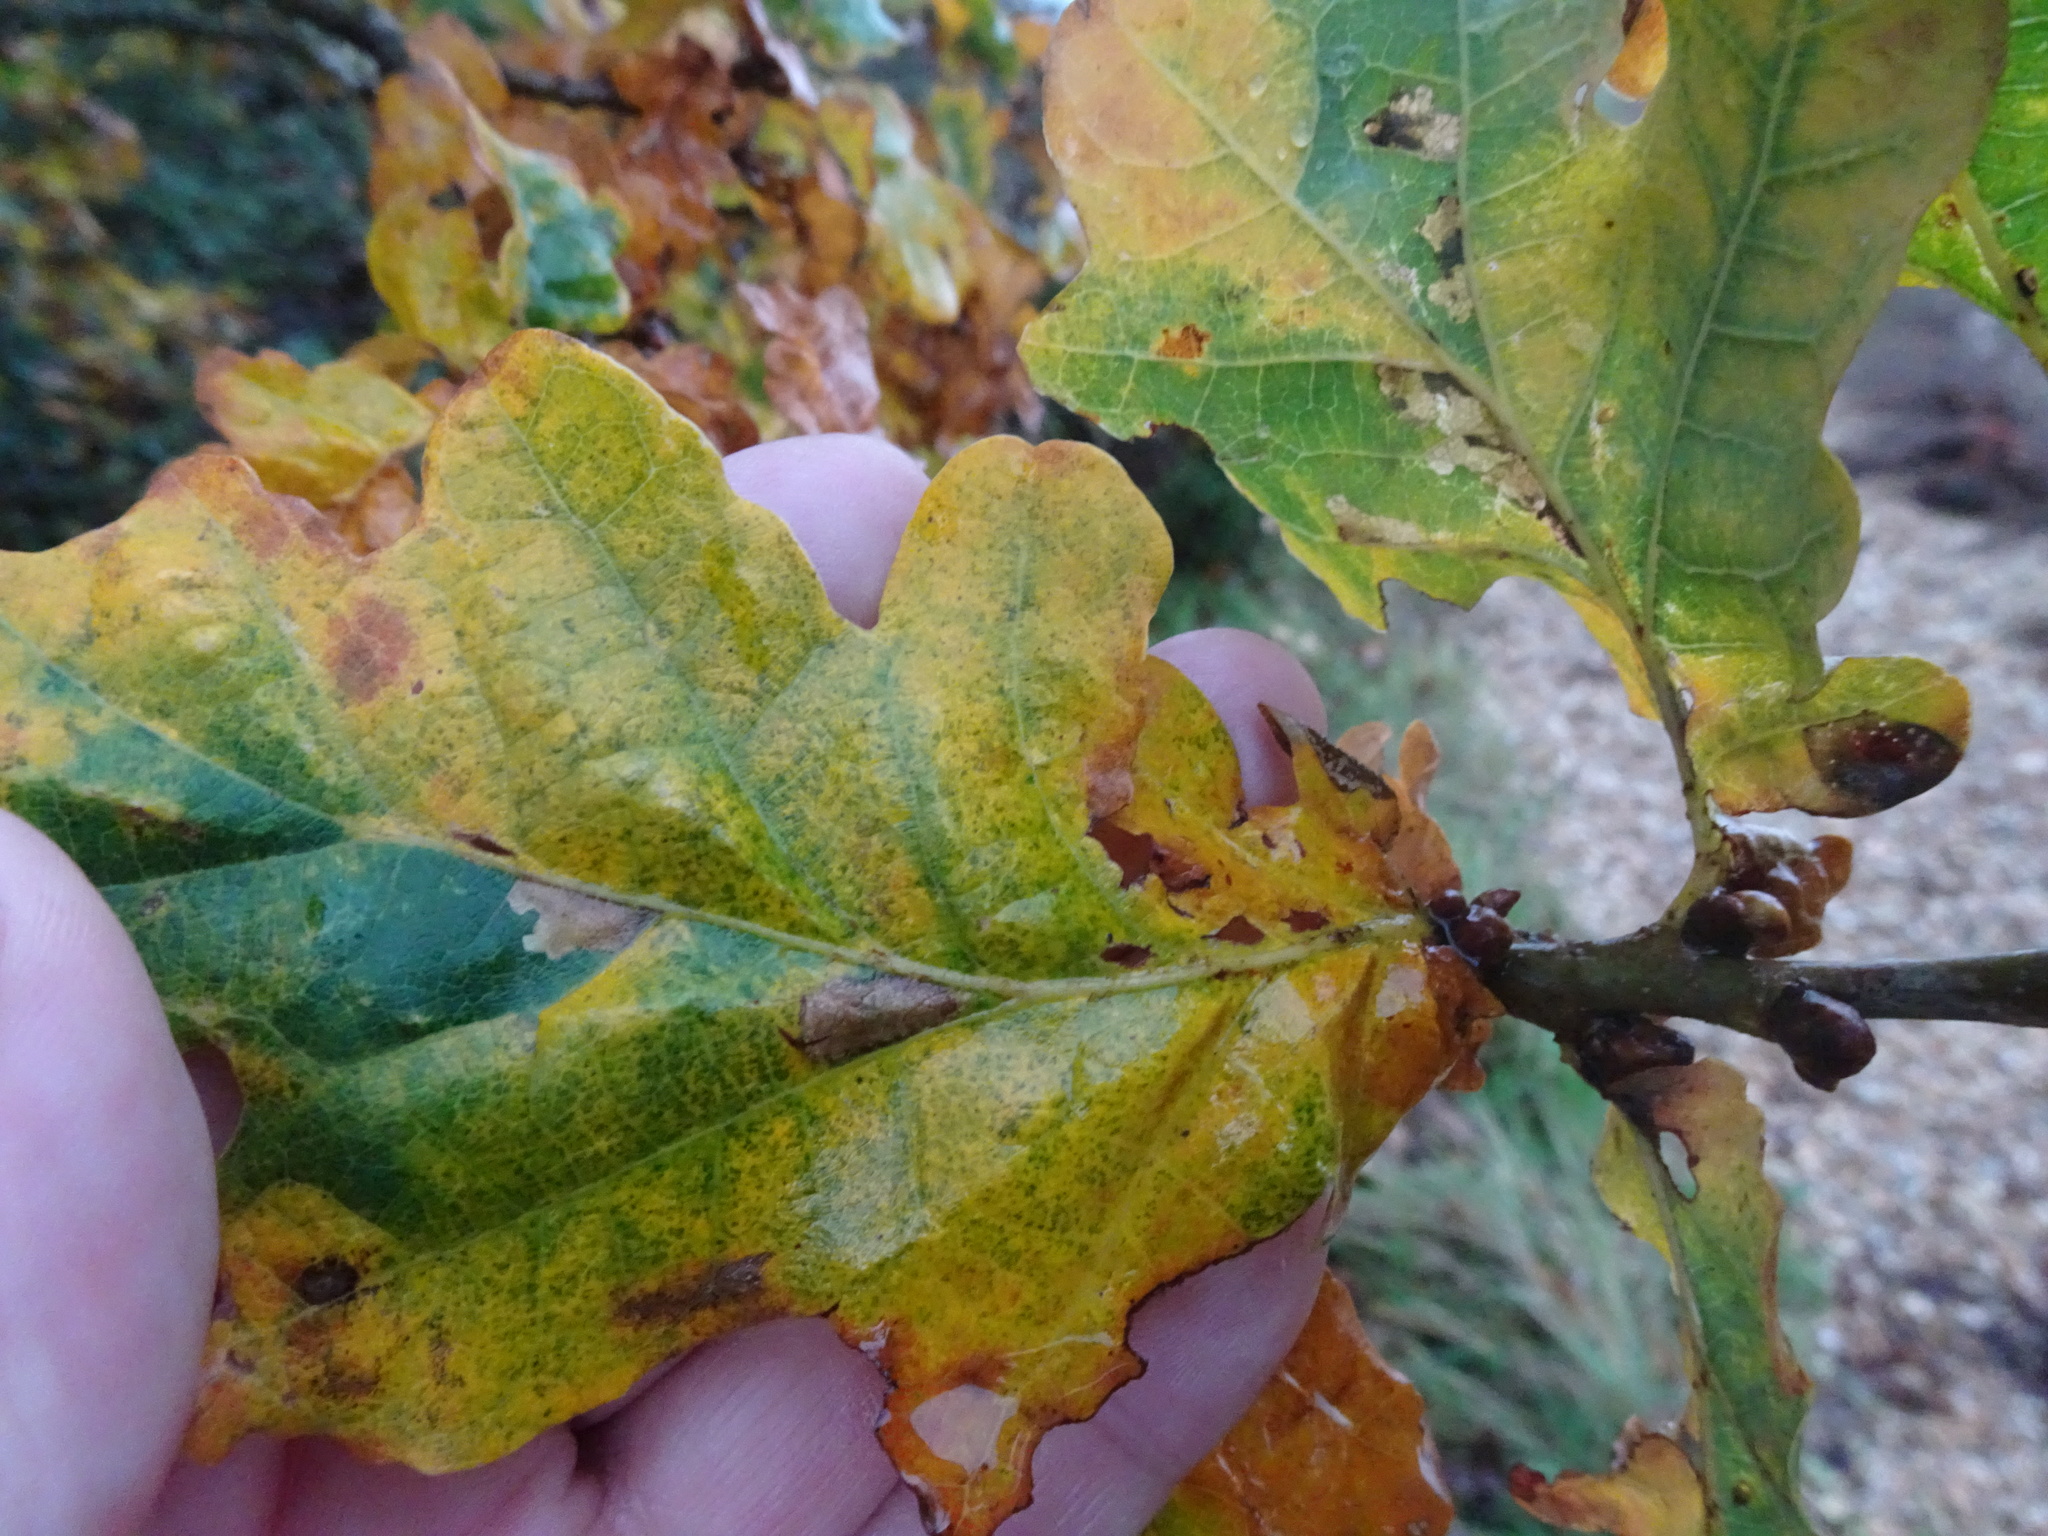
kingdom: Plantae
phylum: Tracheophyta
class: Magnoliopsida
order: Fagales
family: Fagaceae
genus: Quercus
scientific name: Quercus robur
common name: Pedunculate oak
